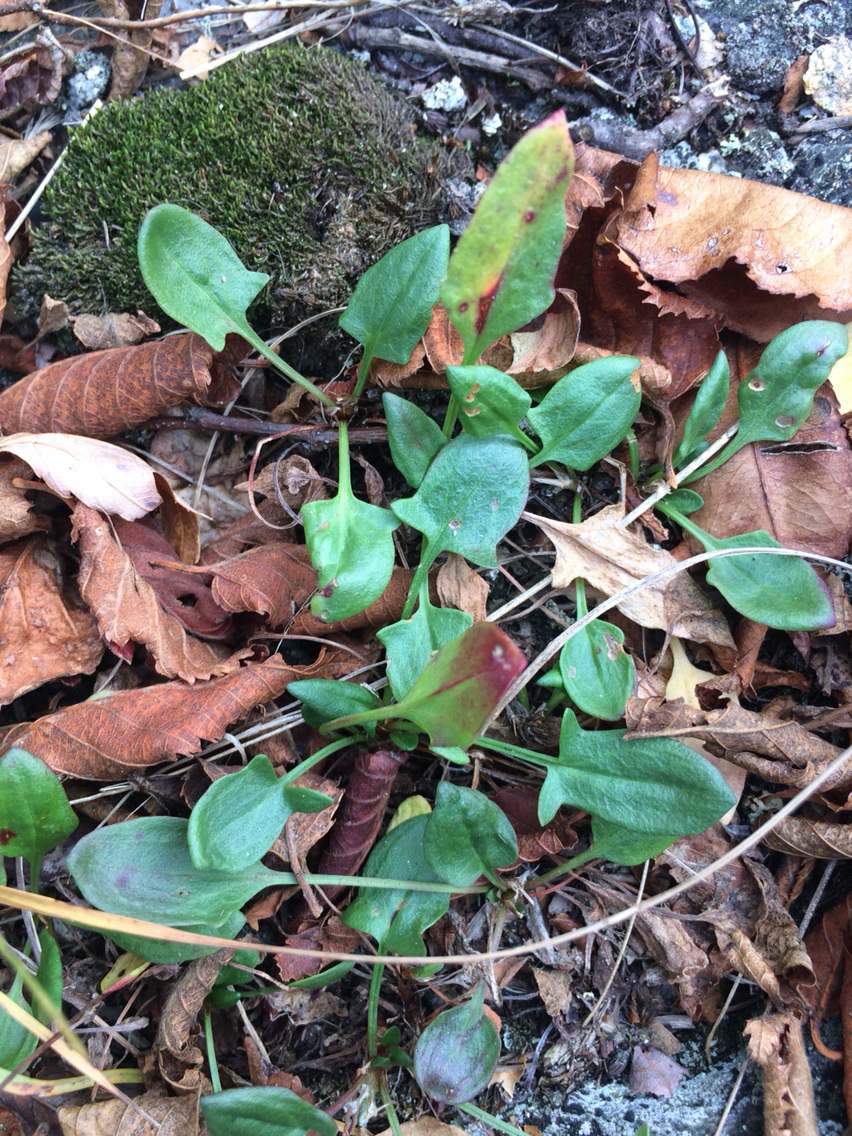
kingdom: Plantae
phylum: Tracheophyta
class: Magnoliopsida
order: Caryophyllales
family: Polygonaceae
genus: Rumex
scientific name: Rumex acetosella
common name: Common sheep sorrel
